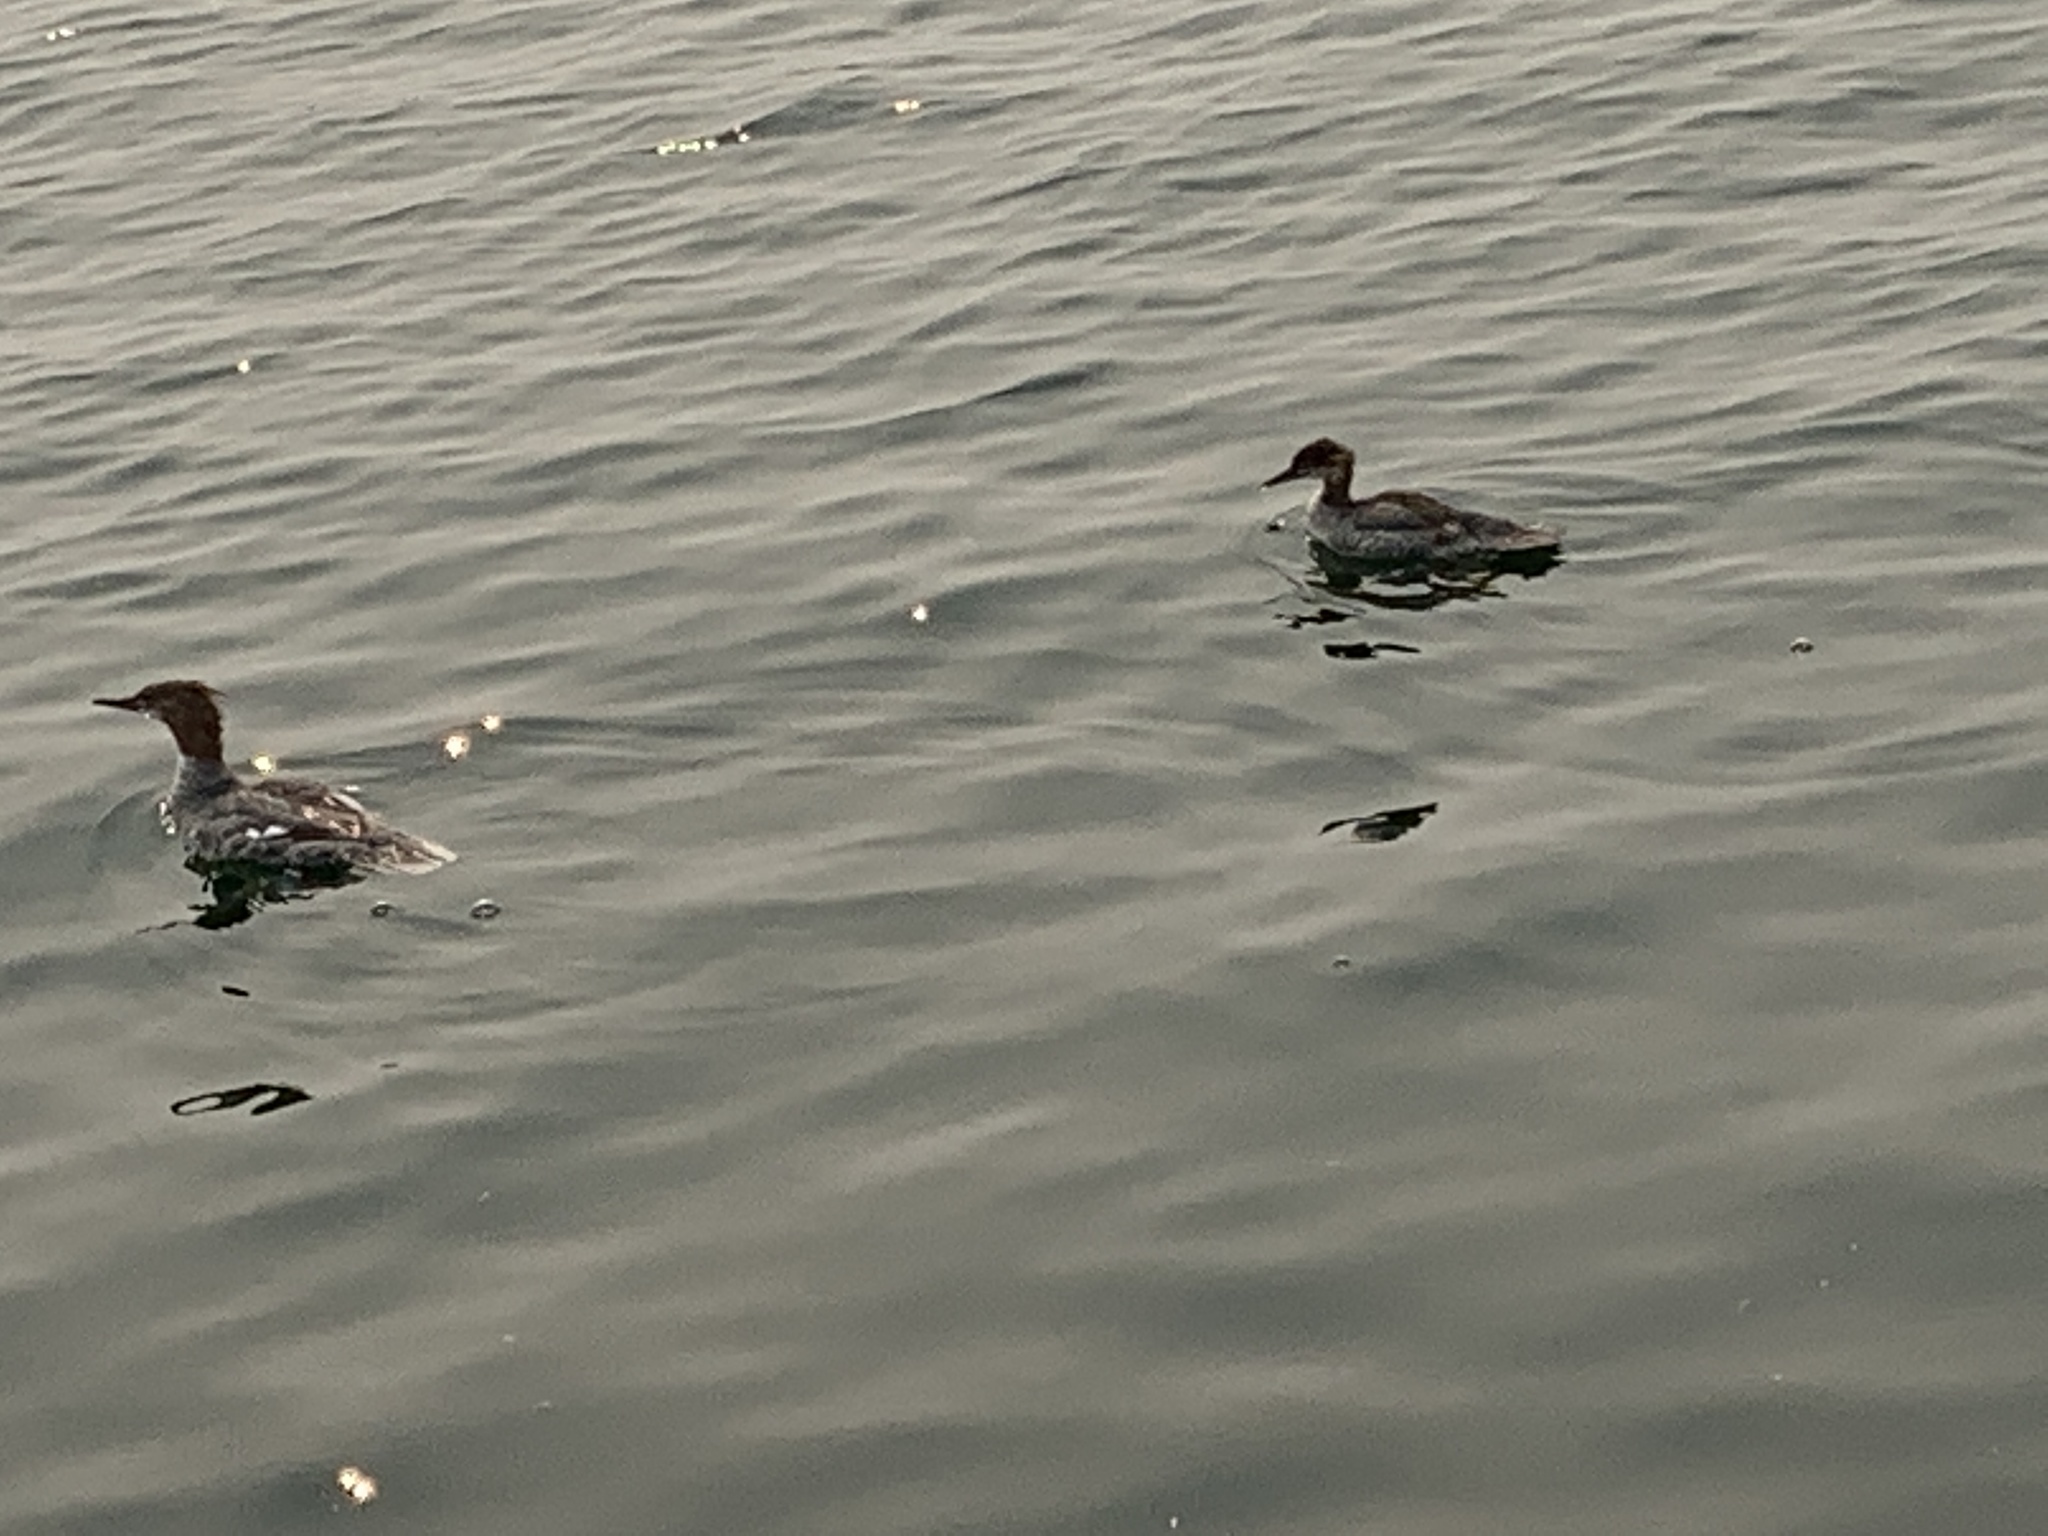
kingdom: Animalia
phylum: Chordata
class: Aves
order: Anseriformes
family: Anatidae
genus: Mergus
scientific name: Mergus merganser
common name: Common merganser
